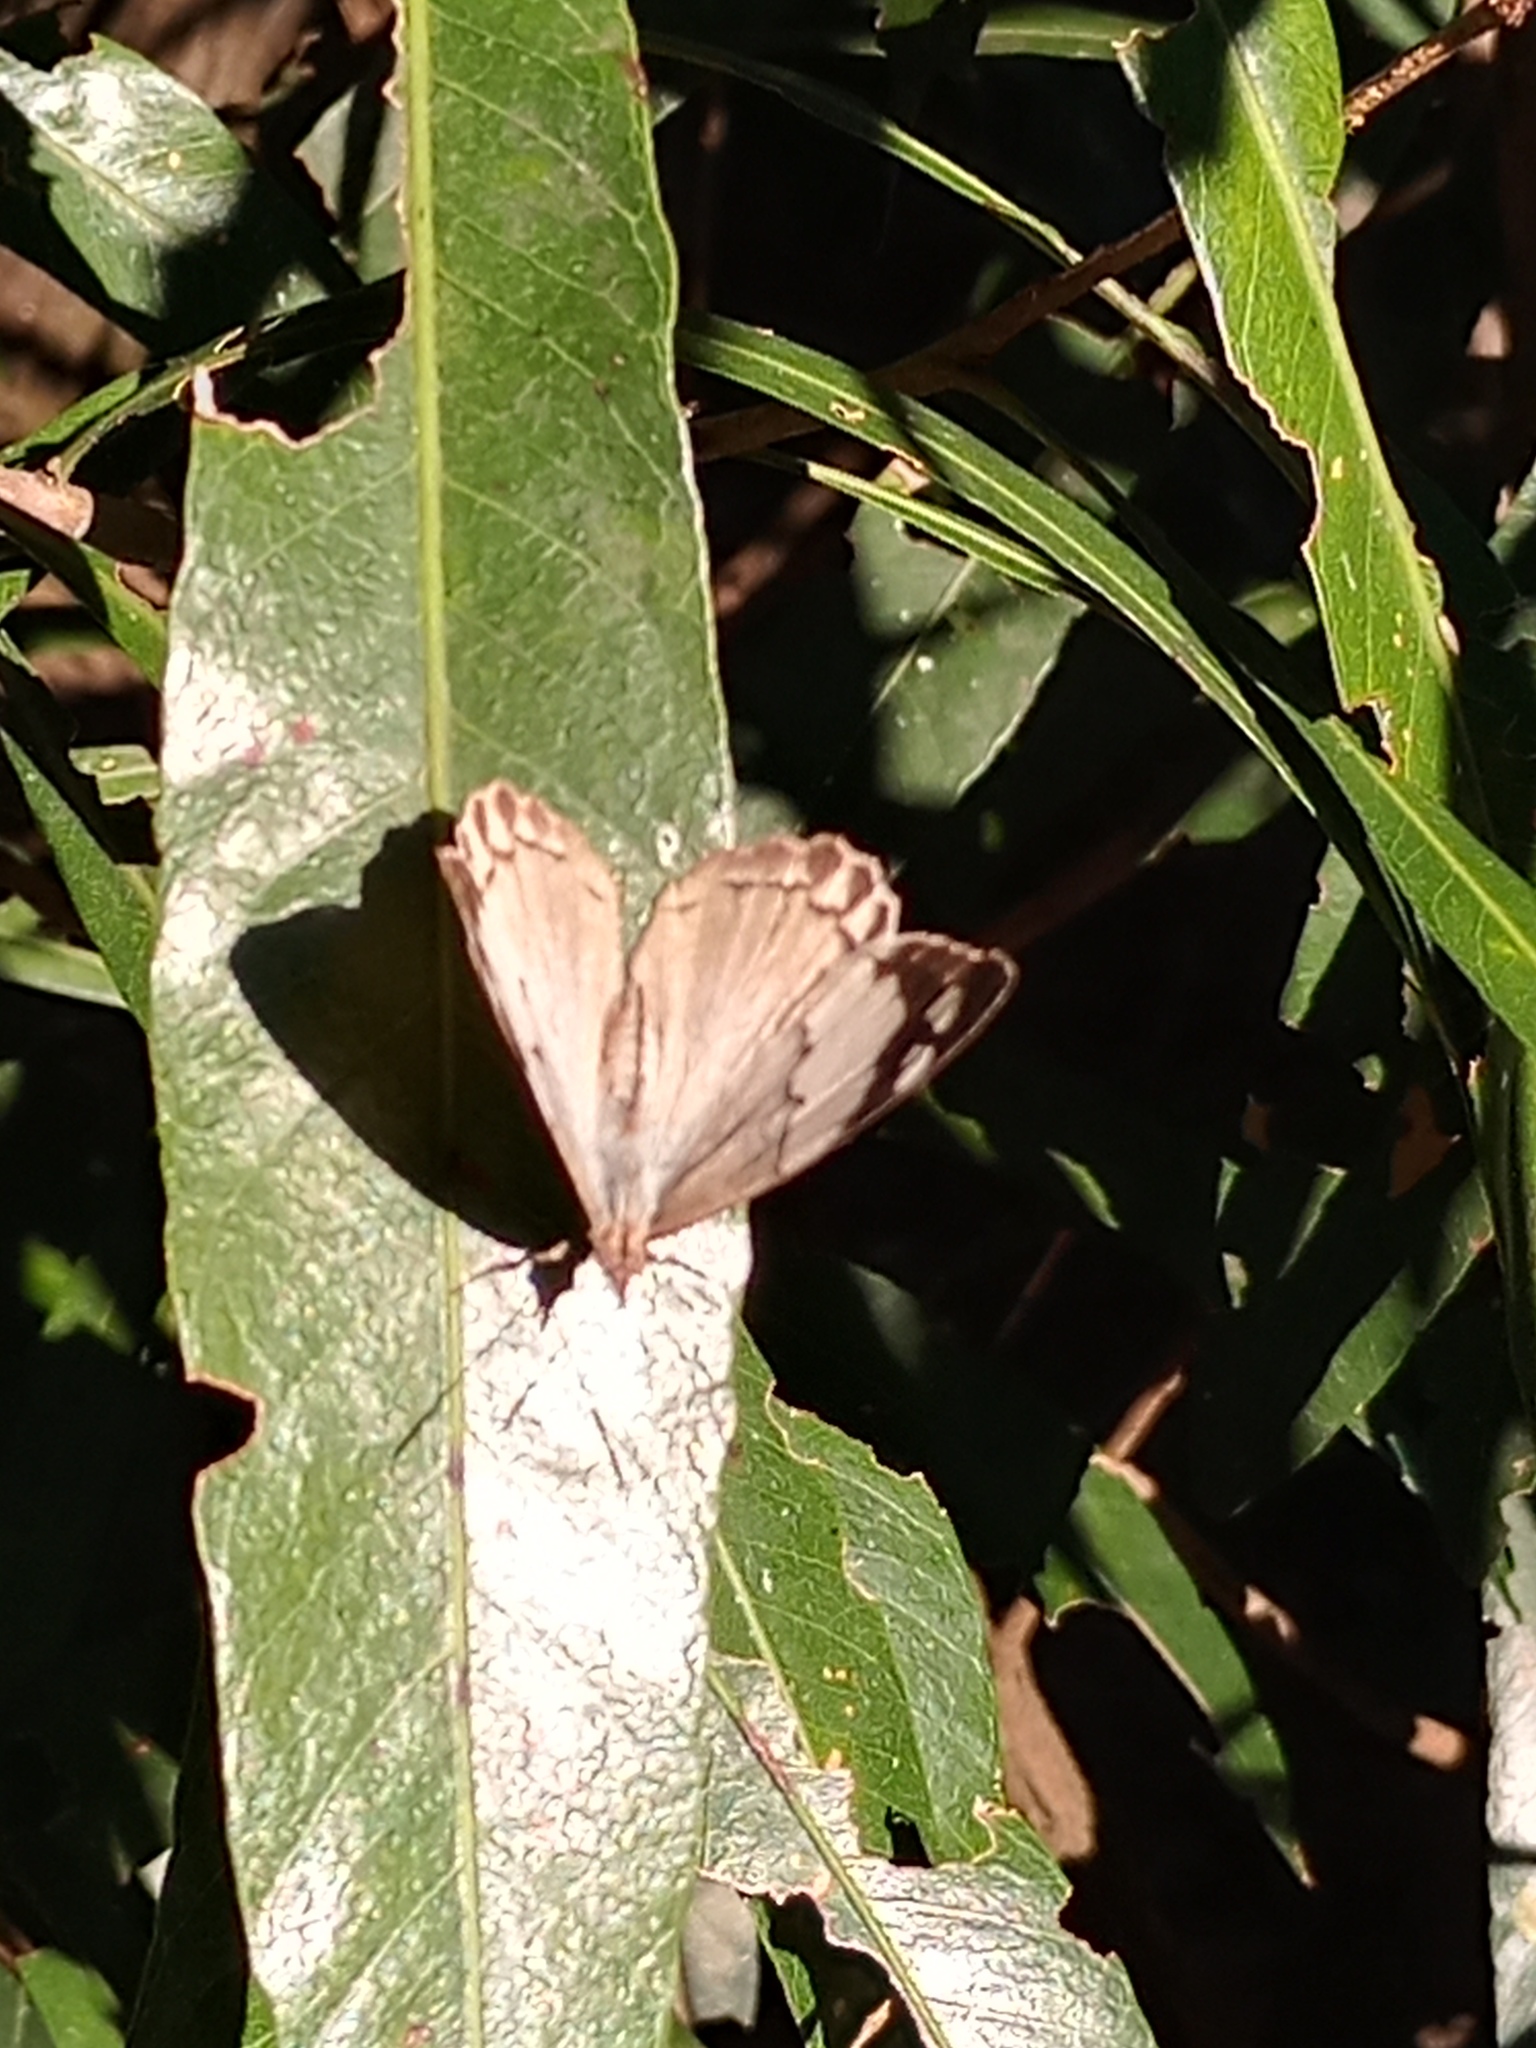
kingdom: Animalia
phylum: Arthropoda
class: Insecta
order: Lepidoptera
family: Nymphalidae
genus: Eunica
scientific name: Eunica eburnea
